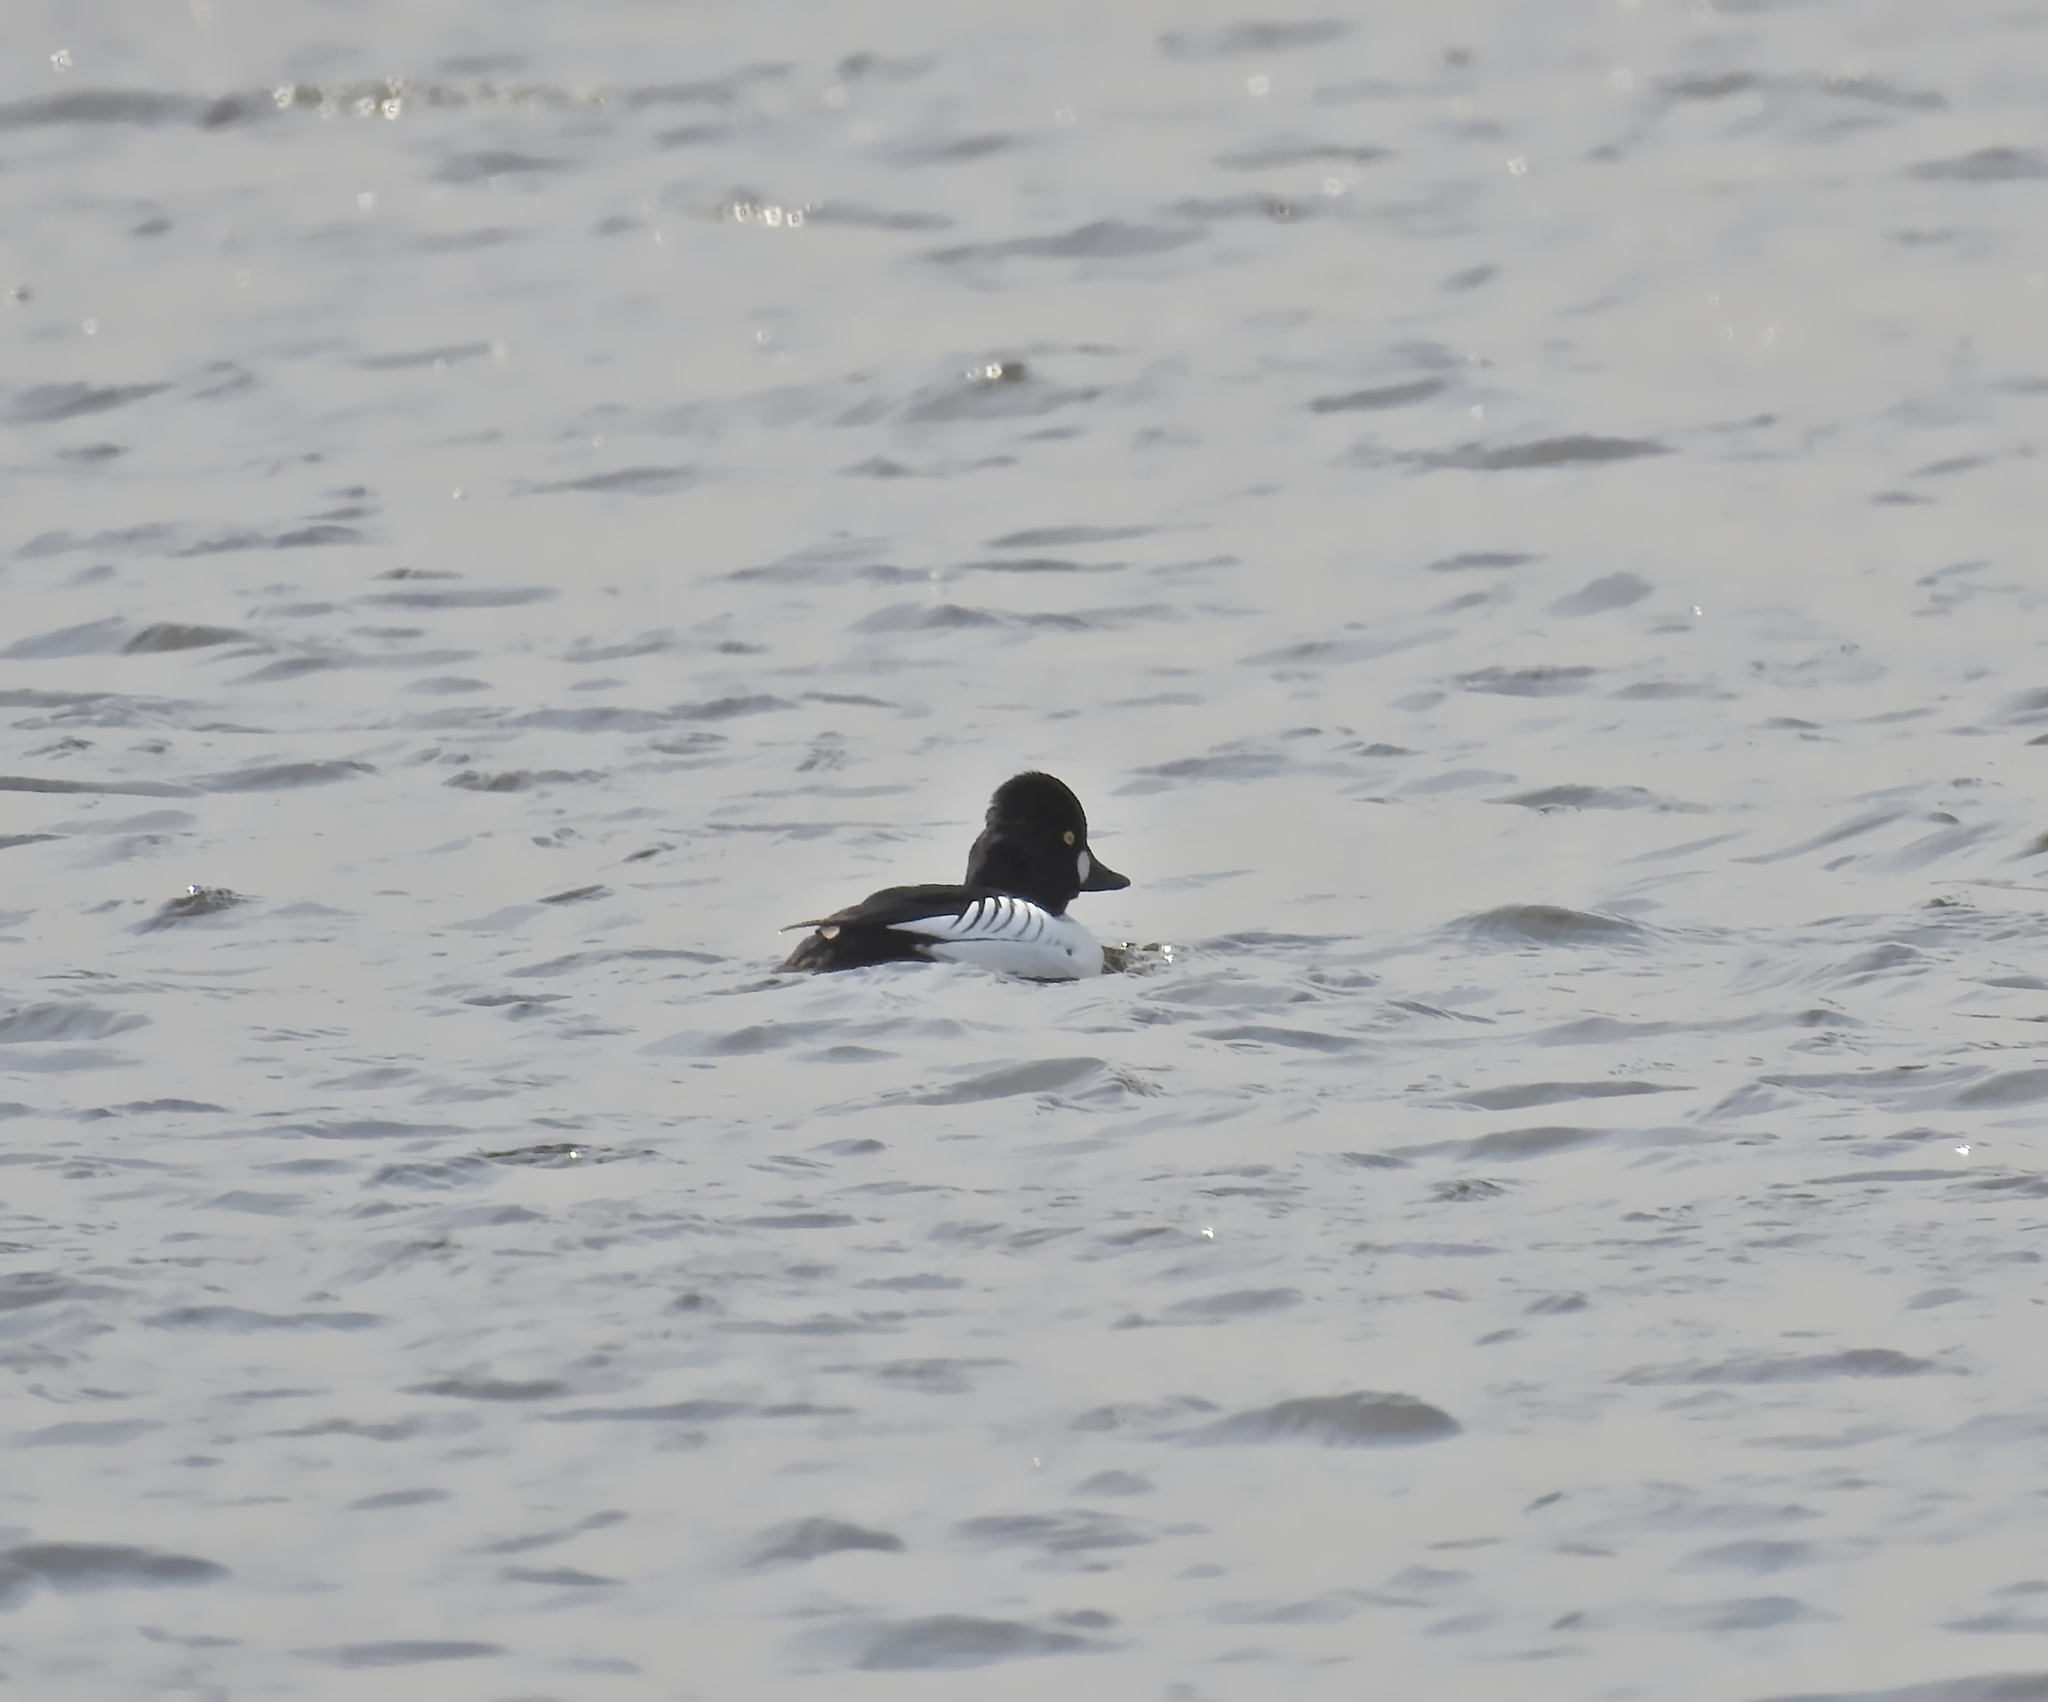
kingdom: Animalia
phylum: Chordata
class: Aves
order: Anseriformes
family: Anatidae
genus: Bucephala
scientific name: Bucephala clangula
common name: Common goldeneye
